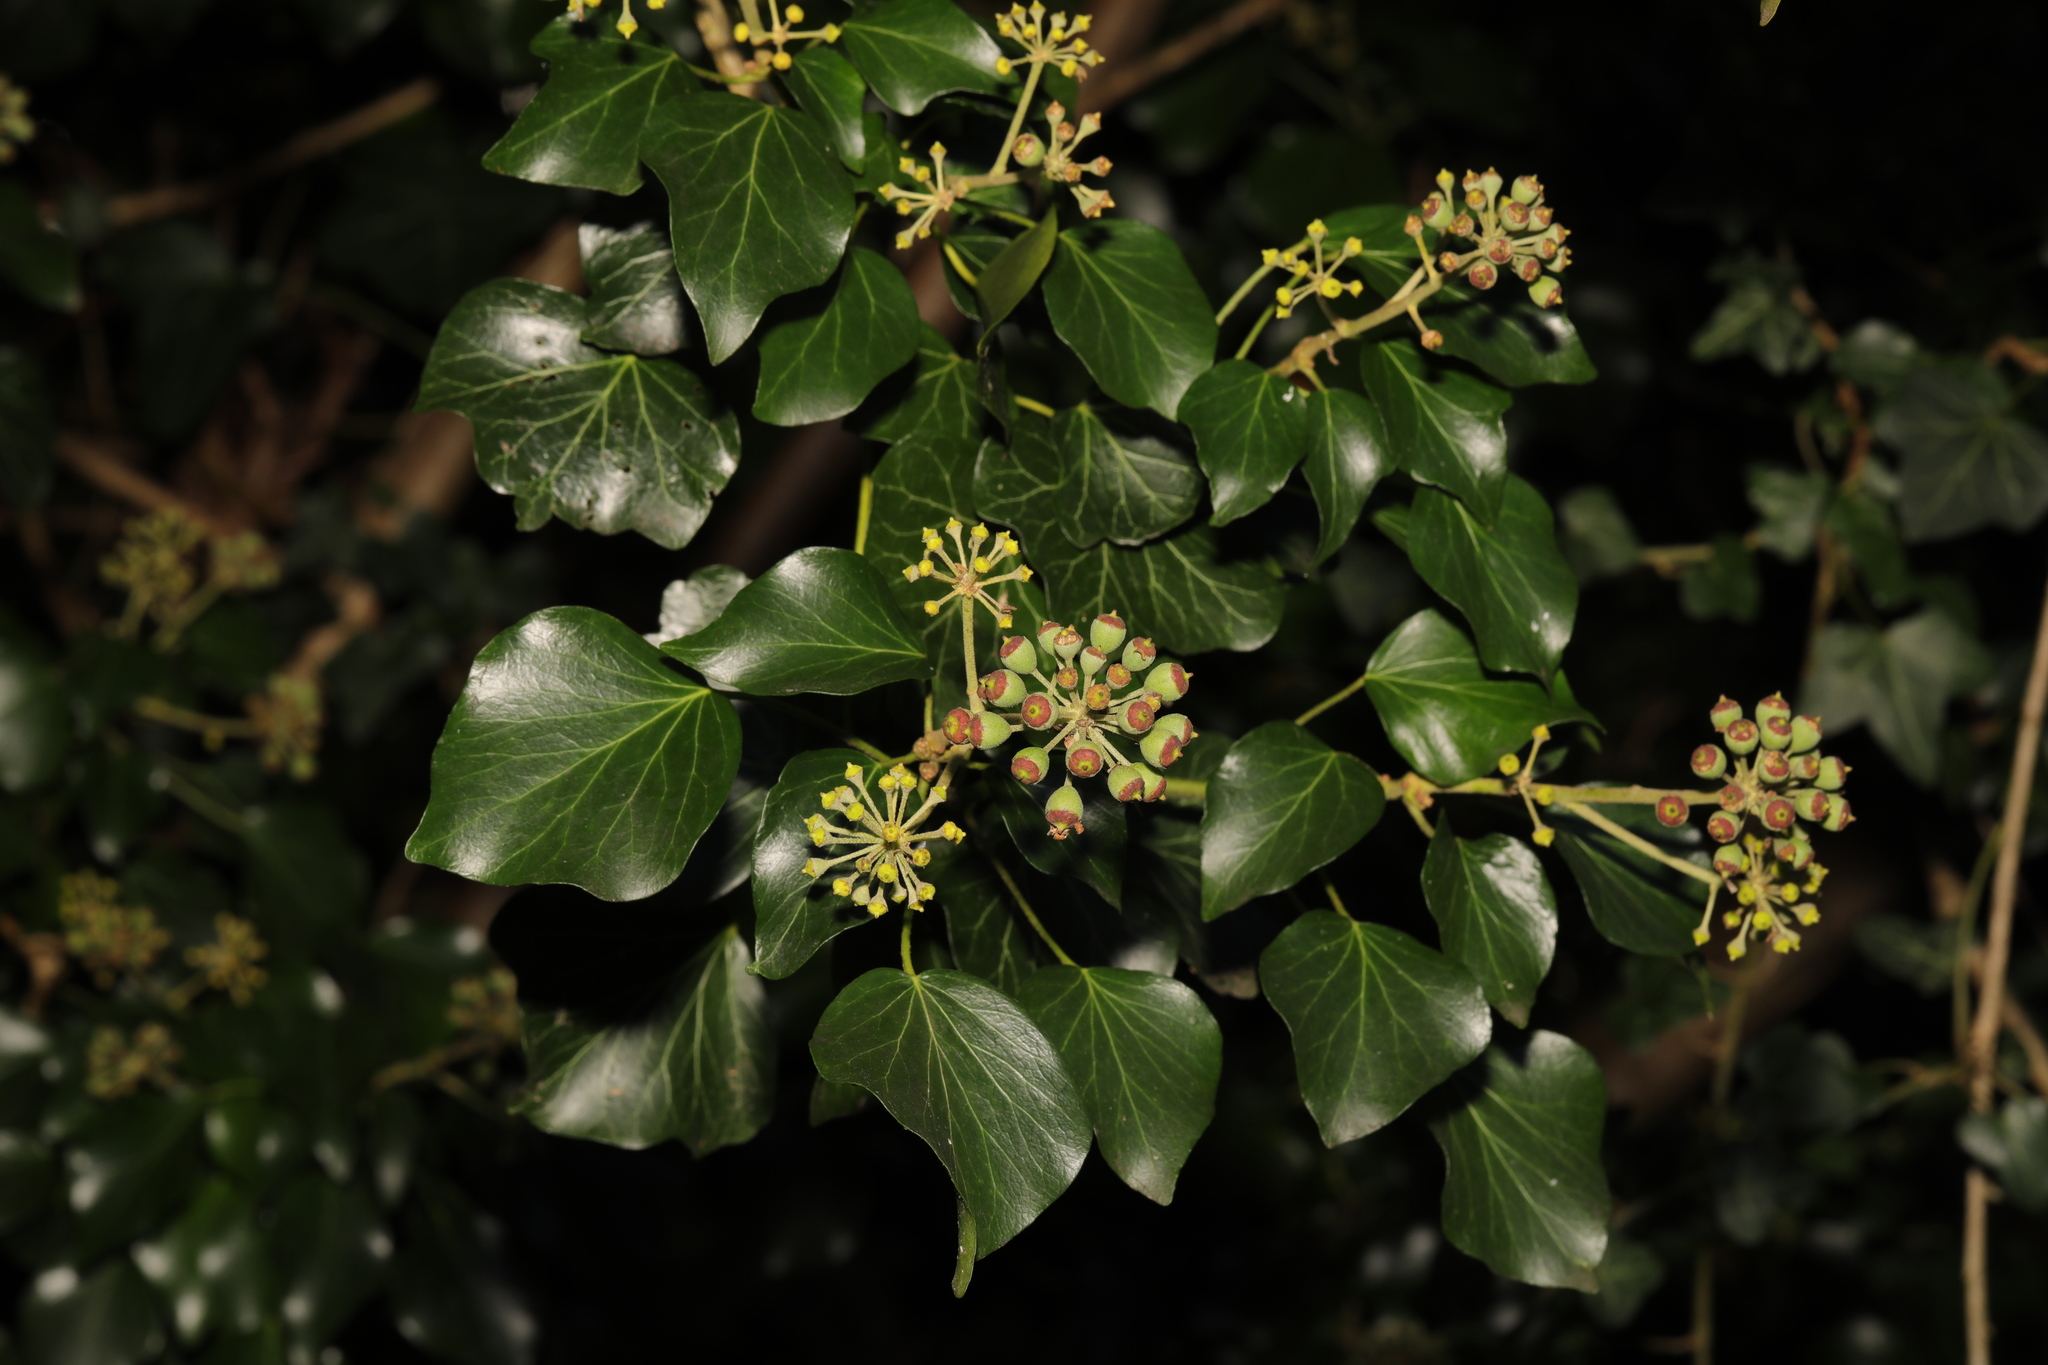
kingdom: Plantae
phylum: Tracheophyta
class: Magnoliopsida
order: Apiales
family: Araliaceae
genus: Hedera
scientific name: Hedera helix
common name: Ivy
